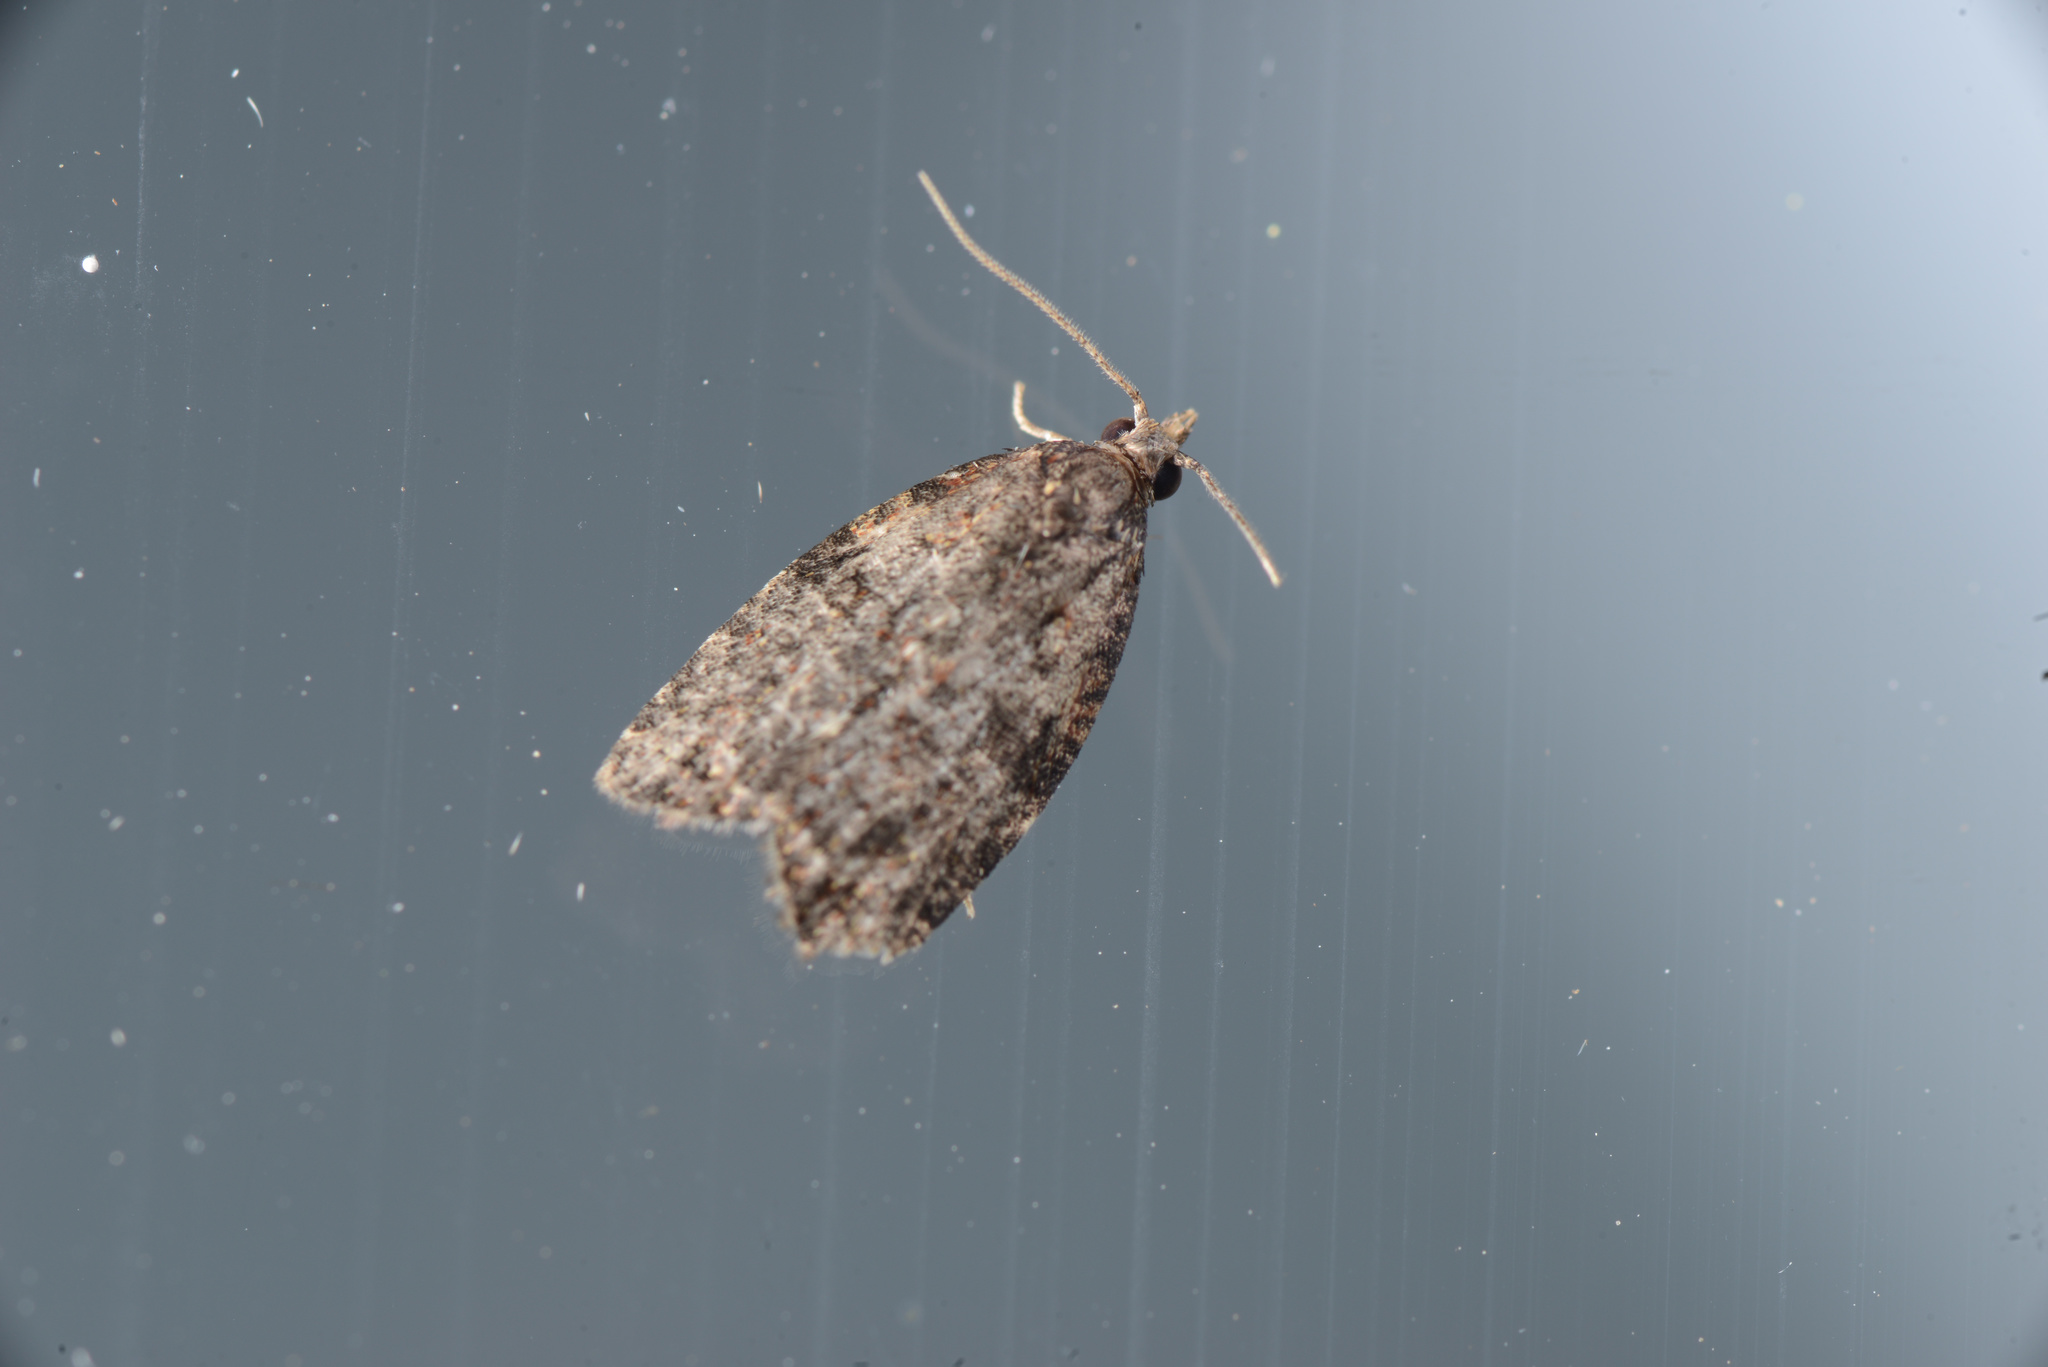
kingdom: Animalia
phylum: Arthropoda
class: Insecta
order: Lepidoptera
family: Tortricidae
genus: Capua
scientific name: Capua intractana
